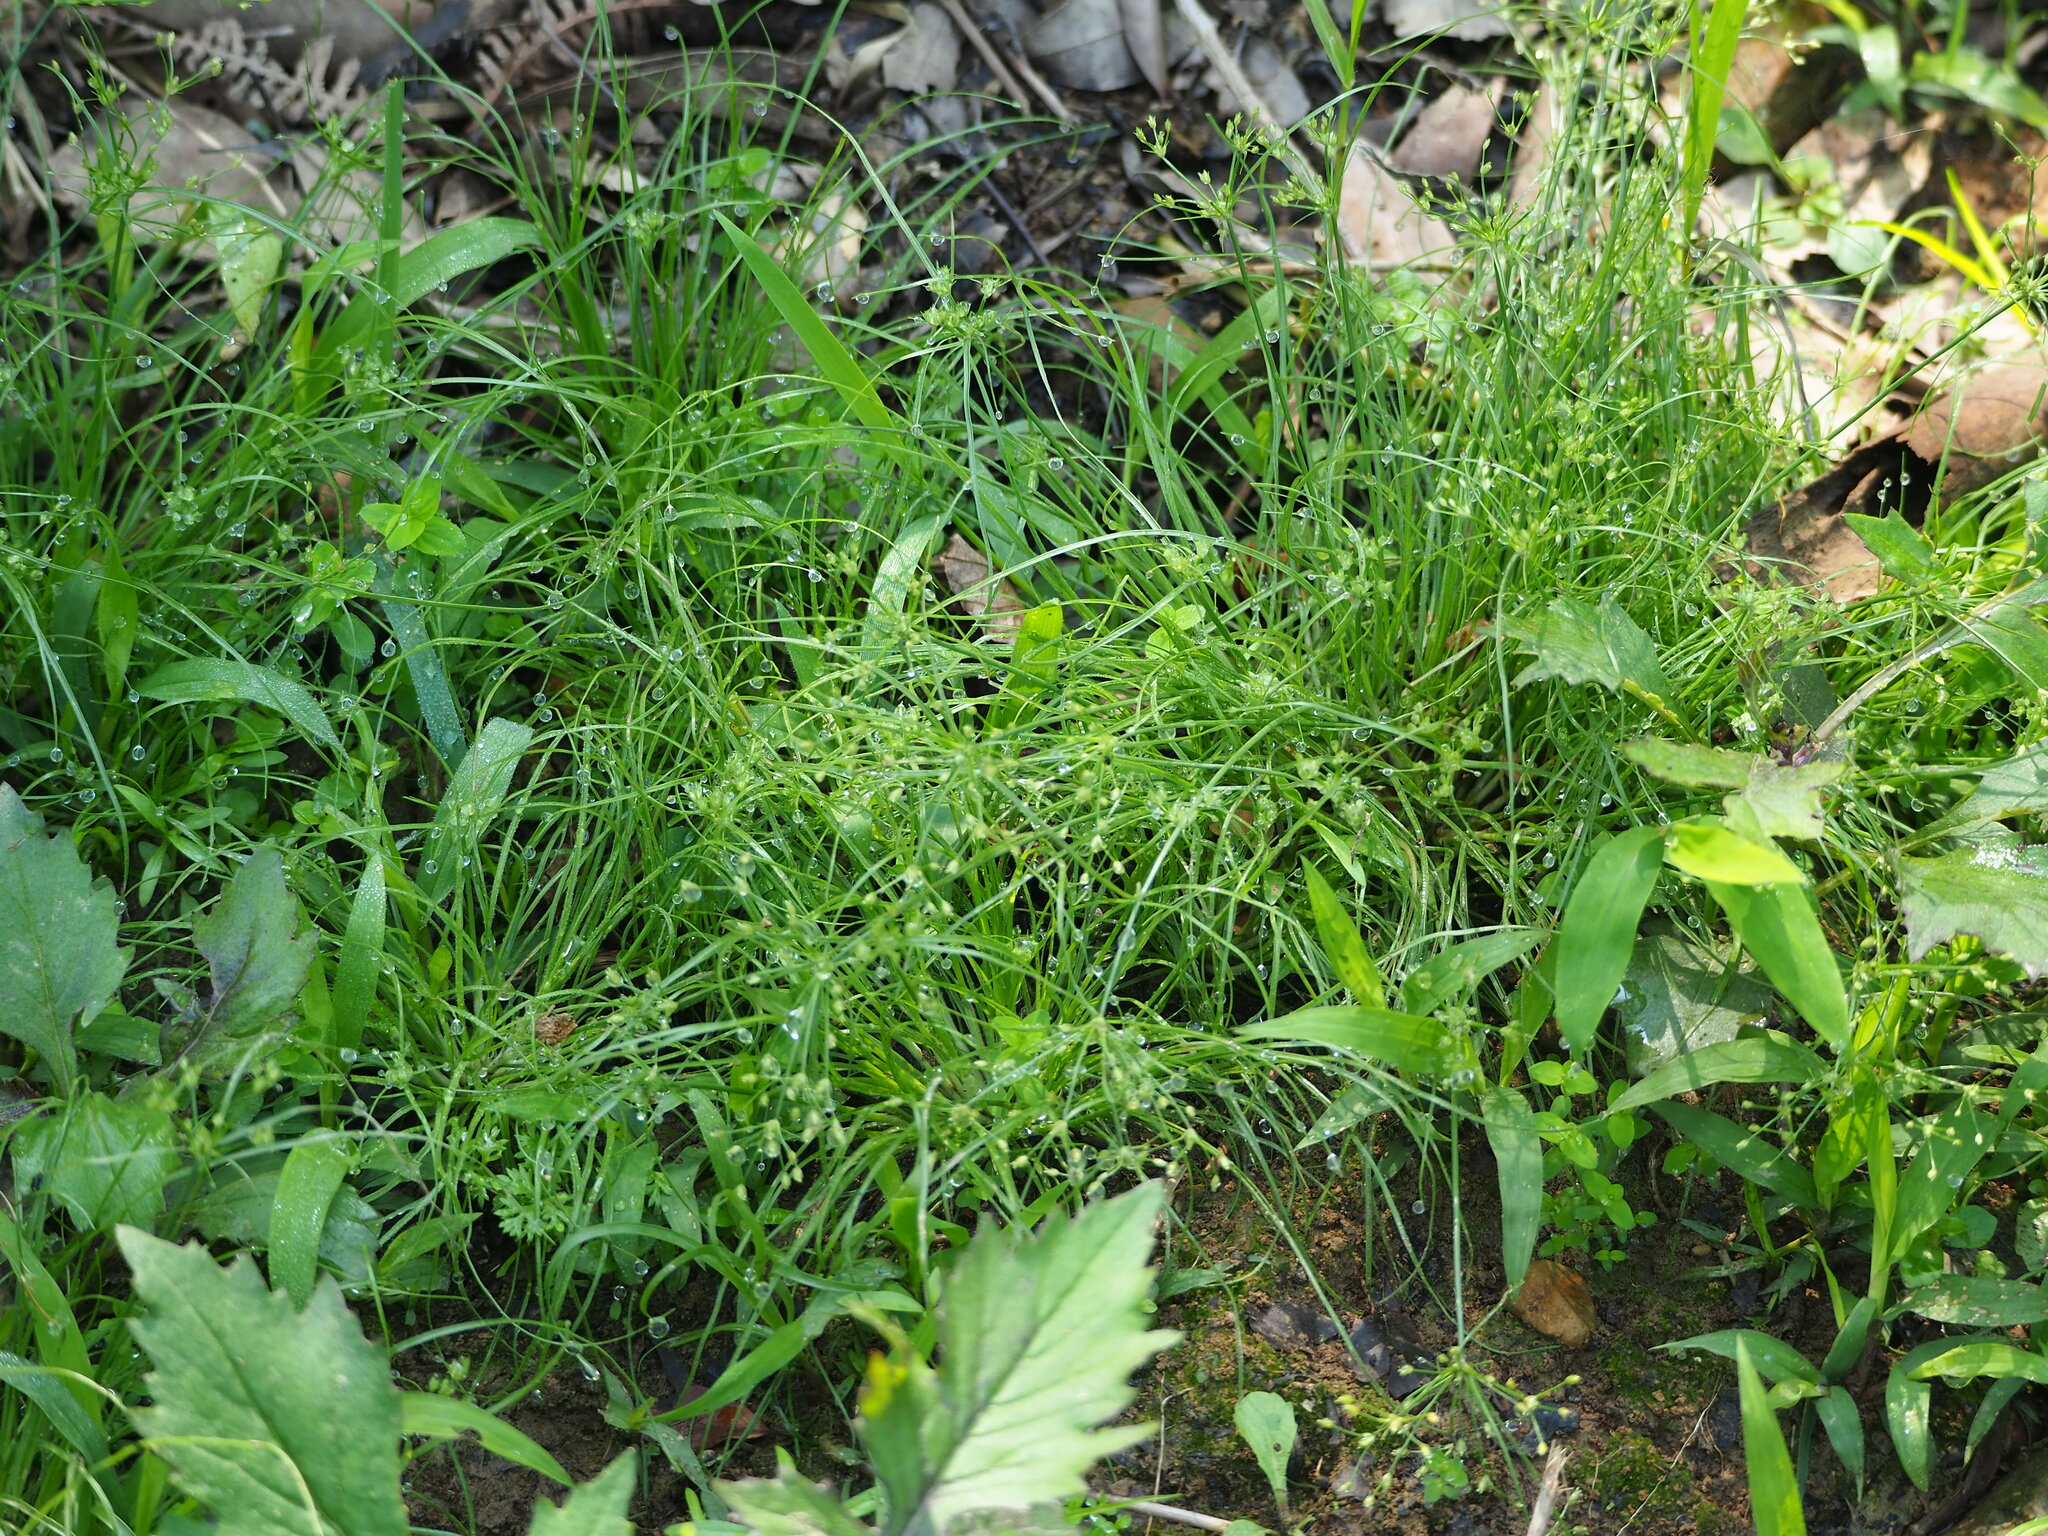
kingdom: Plantae
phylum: Tracheophyta
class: Liliopsida
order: Poales
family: Cyperaceae
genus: Fimbristylis
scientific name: Fimbristylis aestivalis
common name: Summer fimbry
